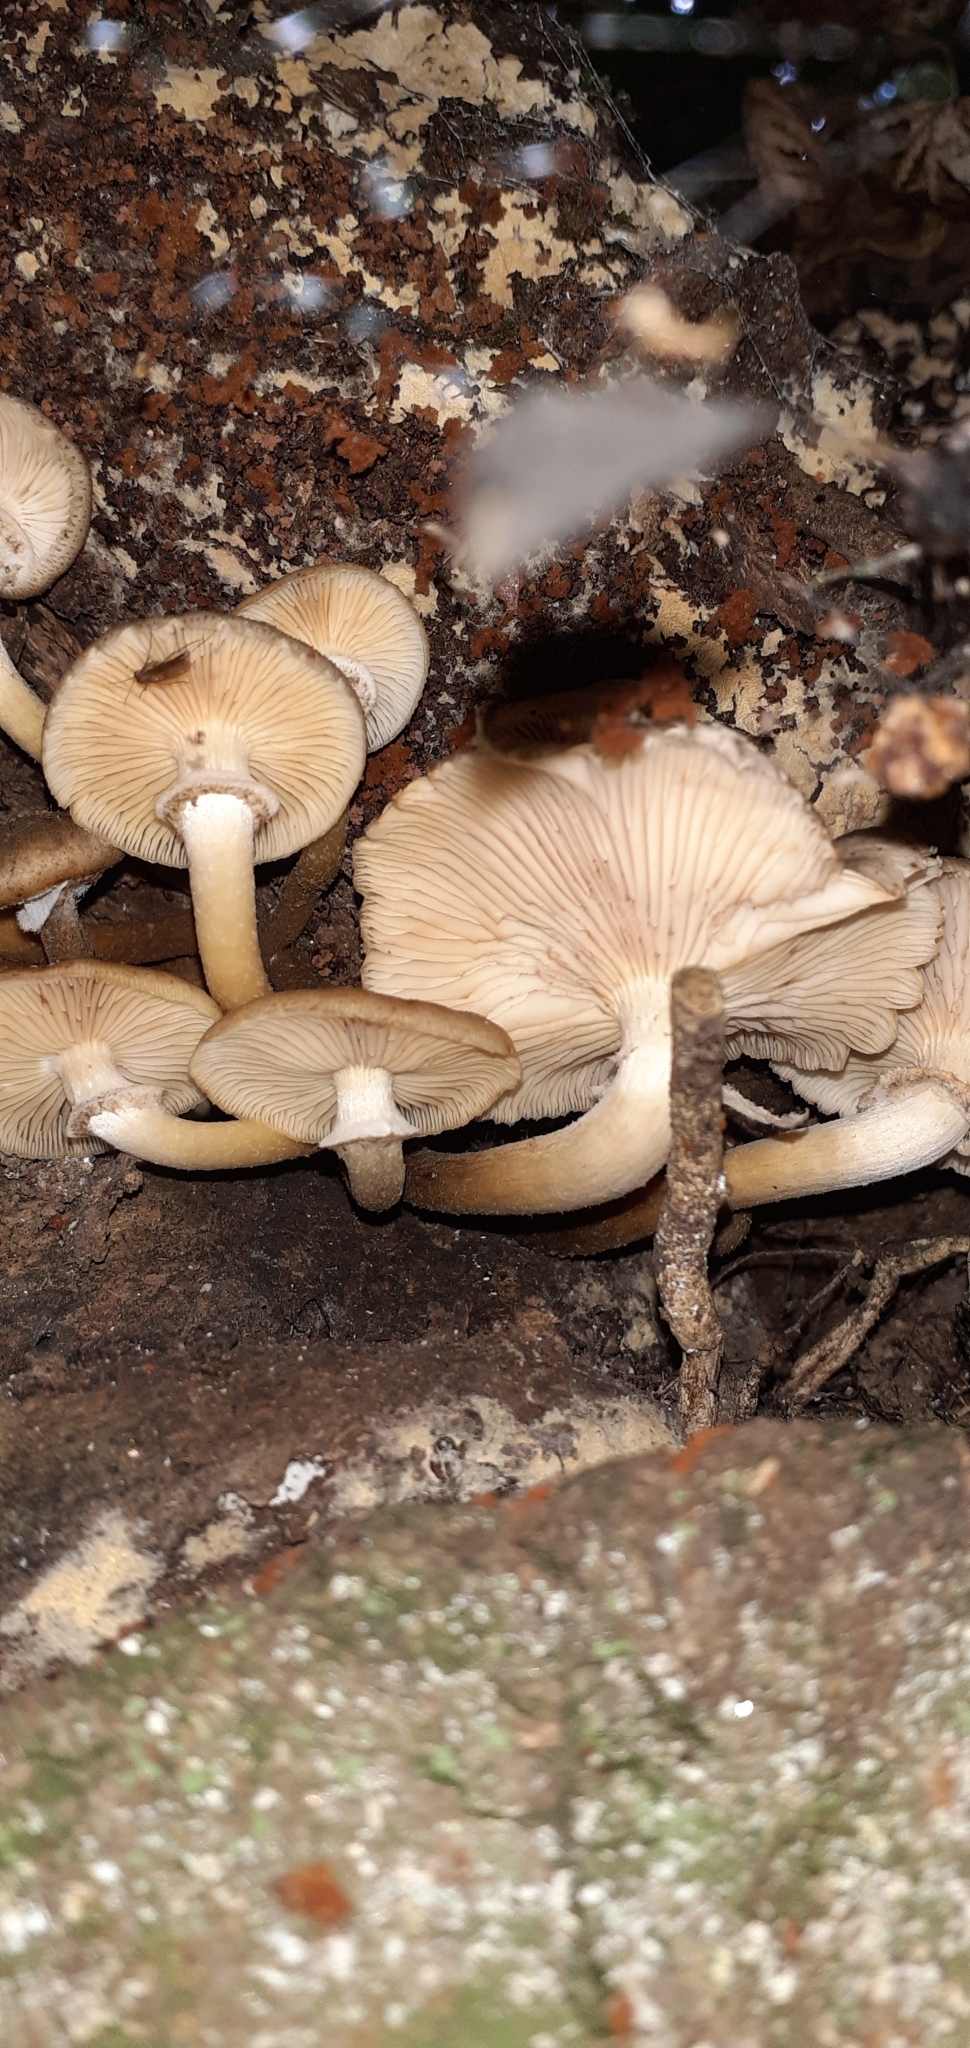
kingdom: Fungi
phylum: Basidiomycota
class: Agaricomycetes
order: Agaricales
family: Physalacriaceae
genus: Armillaria
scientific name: Armillaria novae-zelandiae
